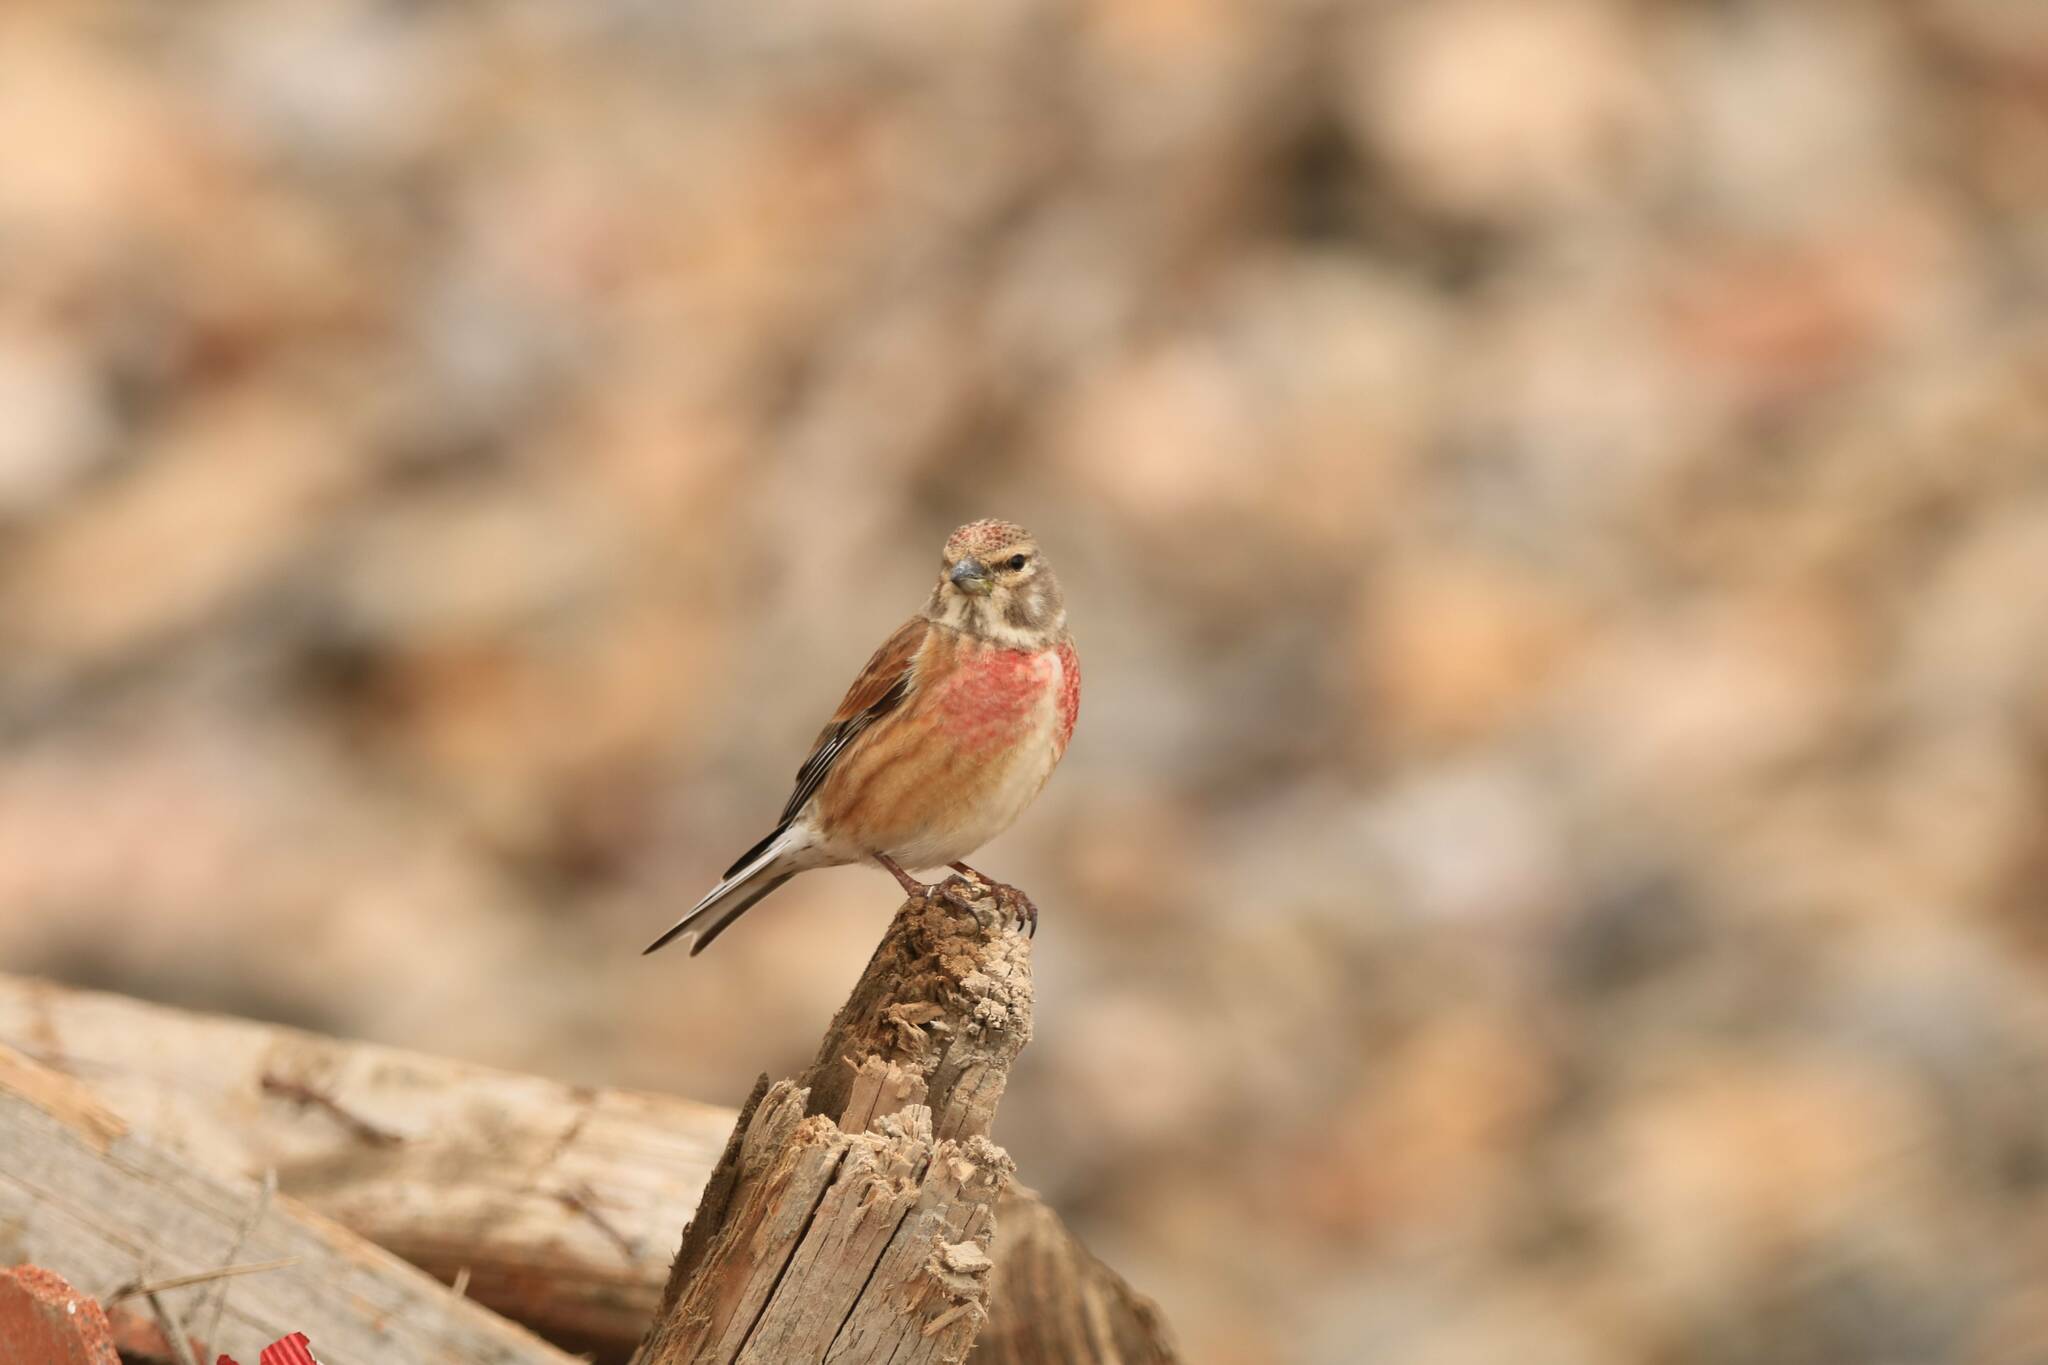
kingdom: Animalia
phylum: Chordata
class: Aves
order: Passeriformes
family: Fringillidae
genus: Linaria
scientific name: Linaria cannabina
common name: Common linnet
